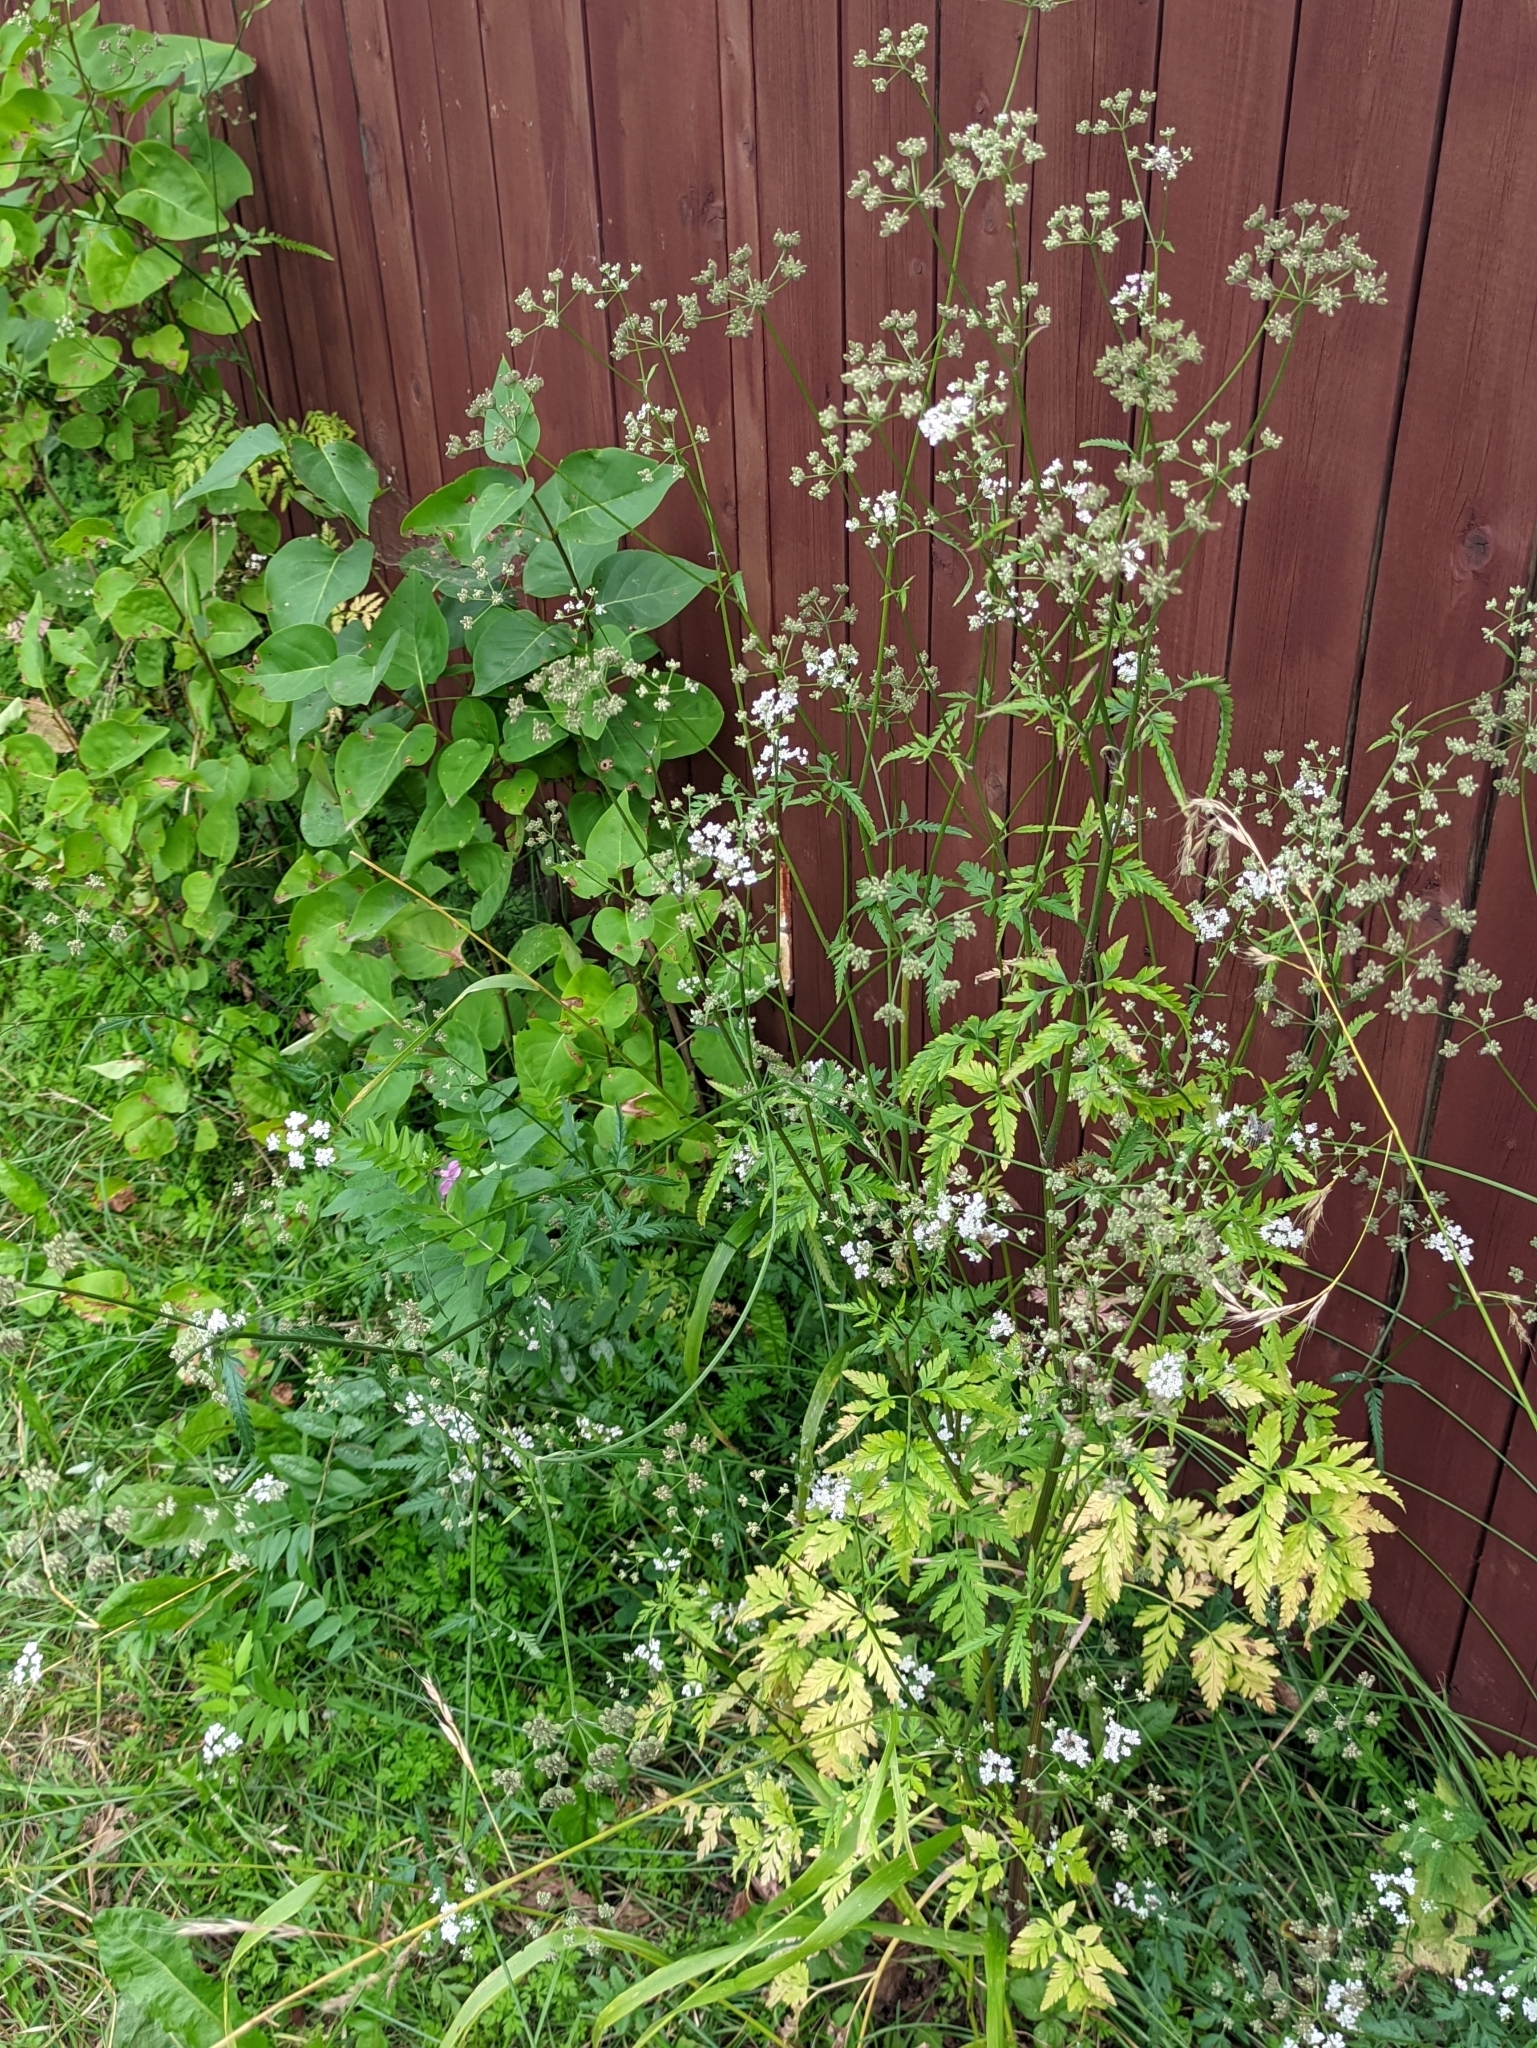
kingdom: Plantae
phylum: Tracheophyta
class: Magnoliopsida
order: Apiales
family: Apiaceae
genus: Torilis
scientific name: Torilis japonica
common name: Upright hedge-parsley
